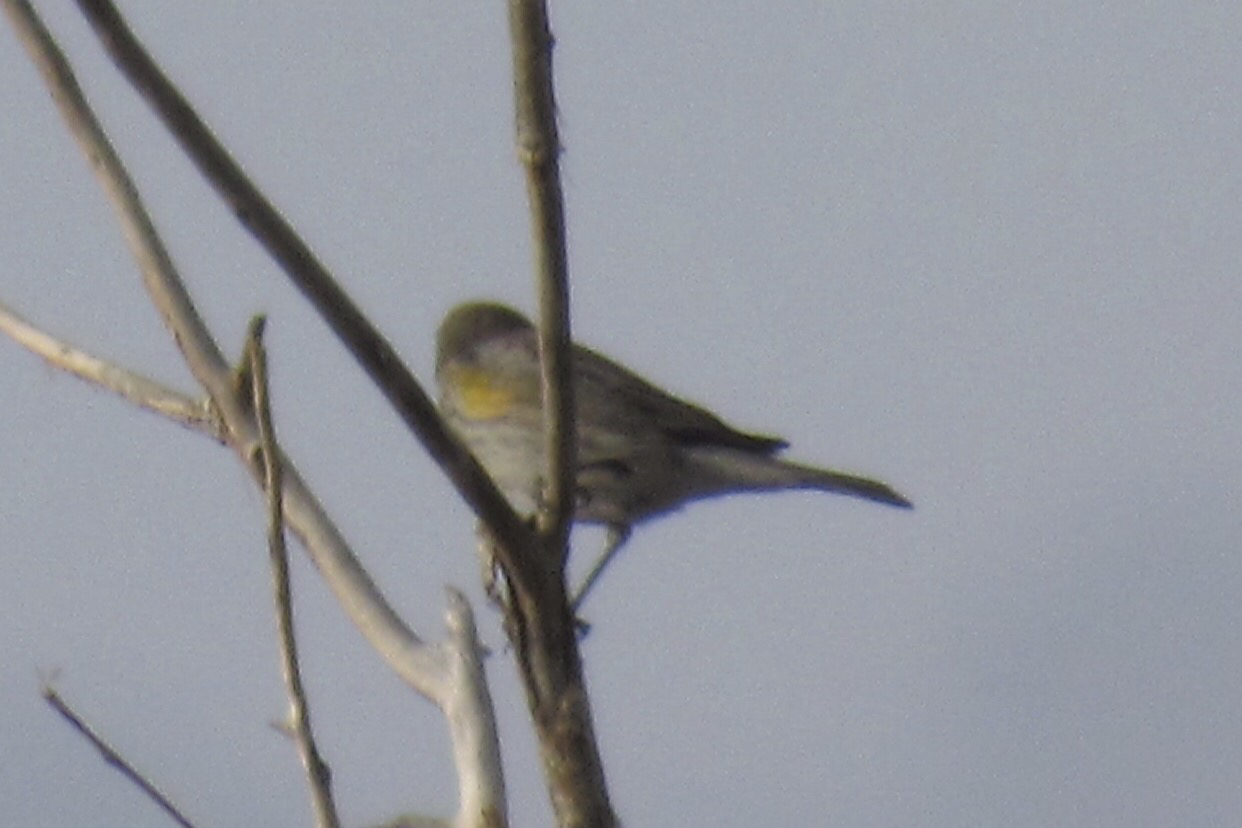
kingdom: Animalia
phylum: Chordata
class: Aves
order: Passeriformes
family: Parulidae
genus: Setophaga
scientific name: Setophaga auduboni
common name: Audubon's warbler
